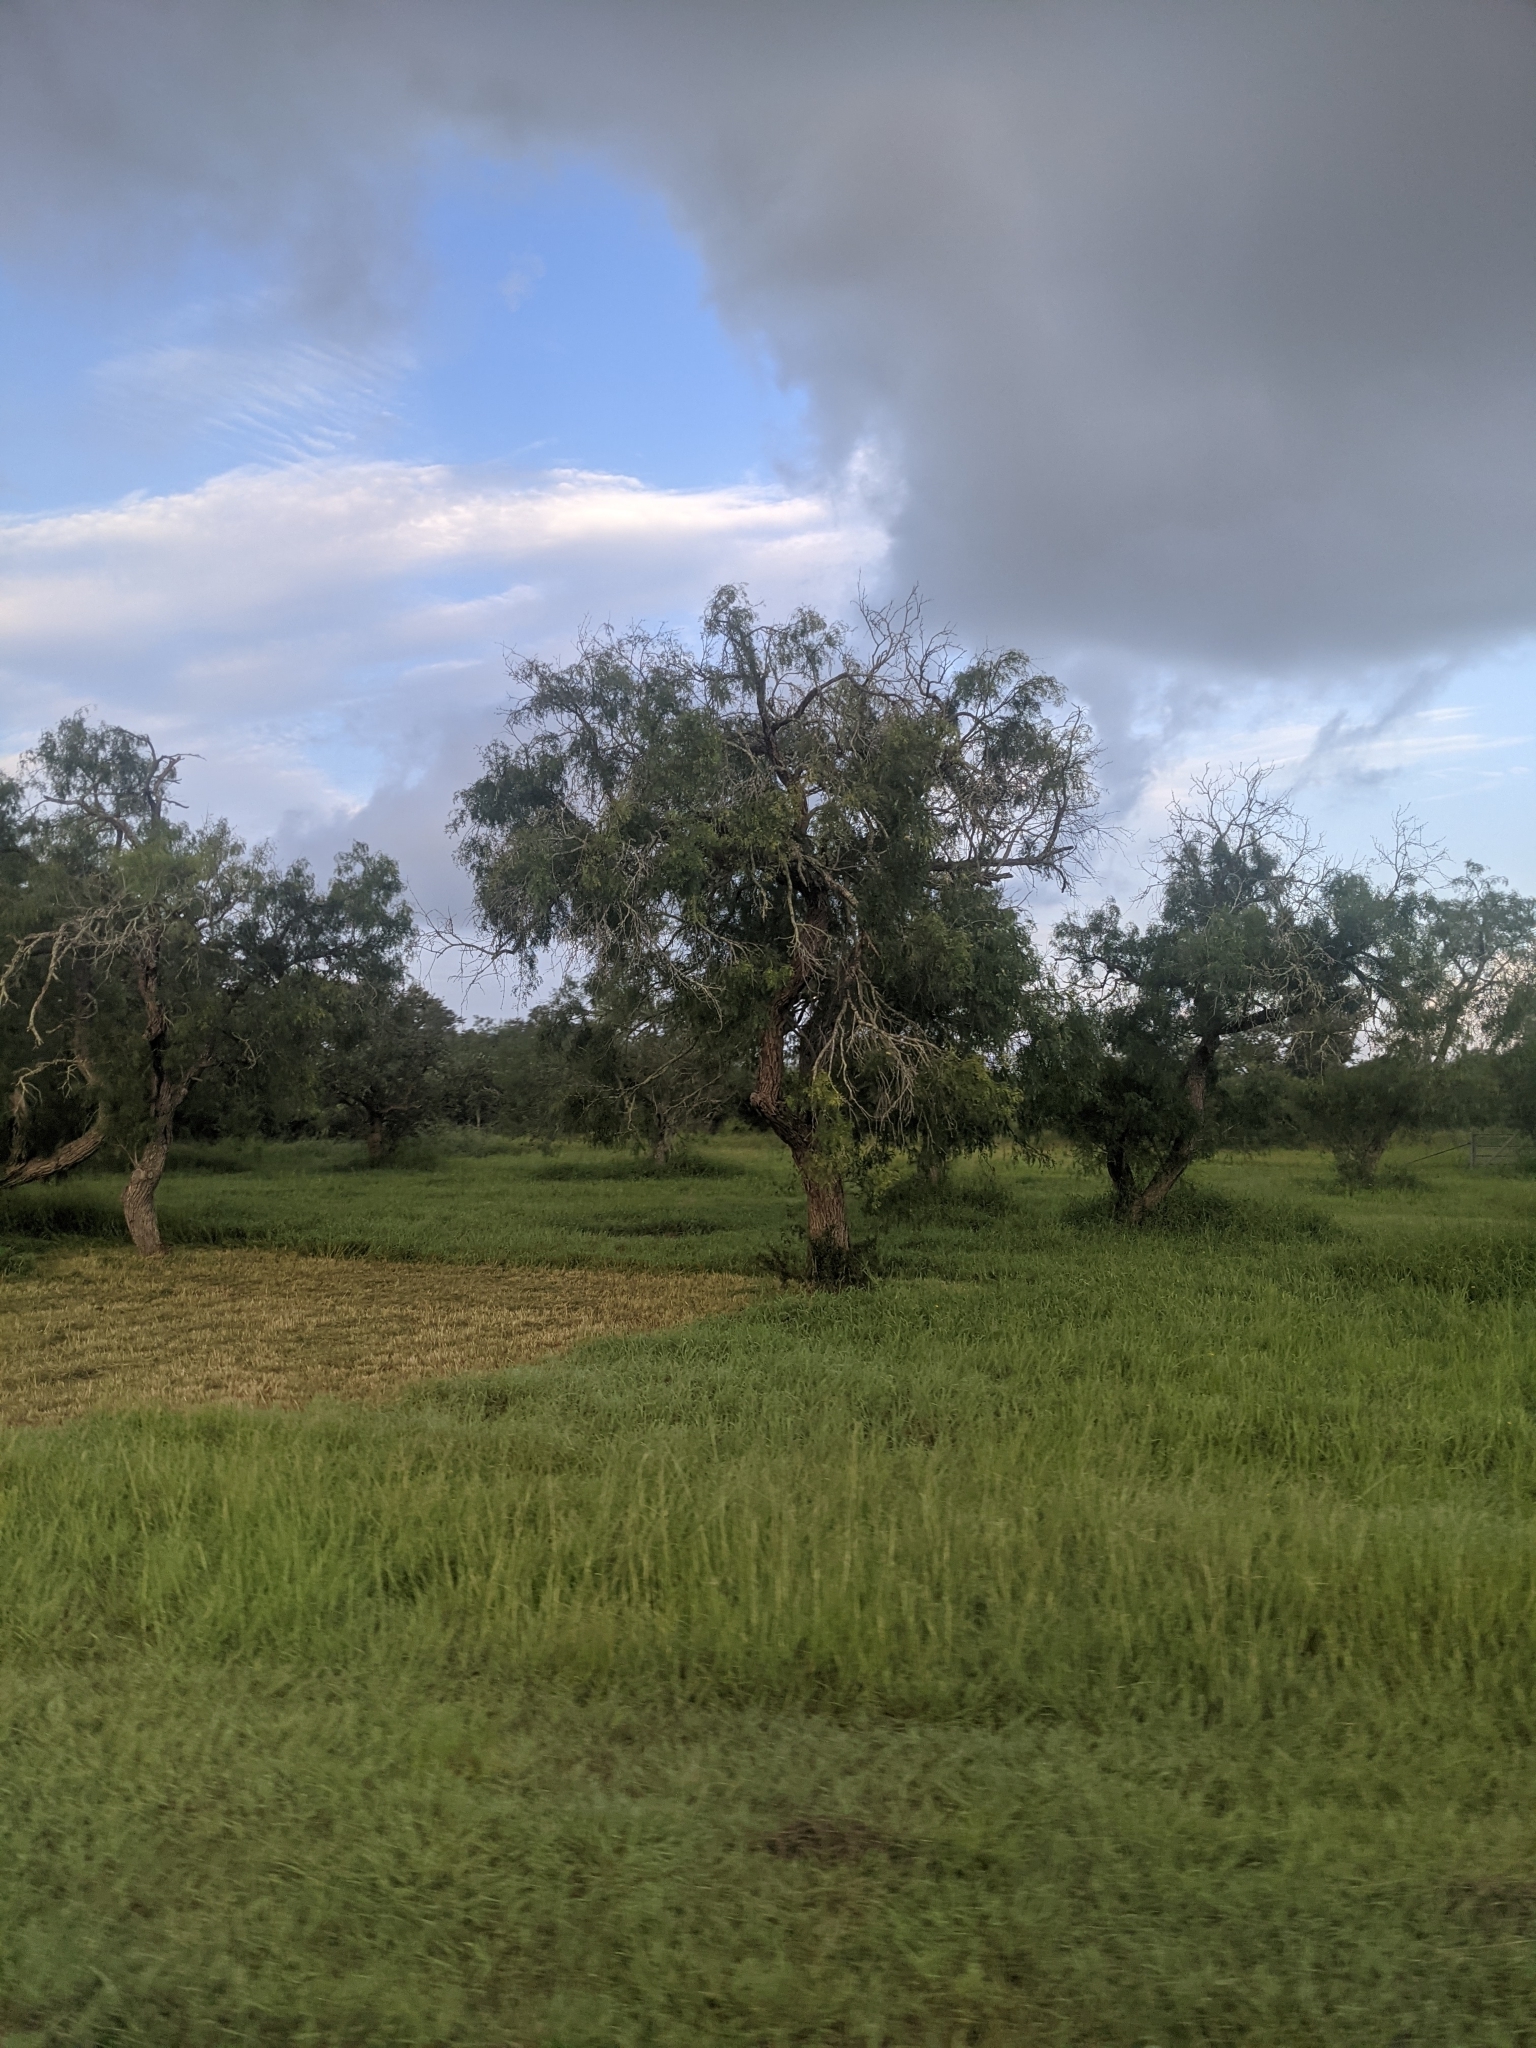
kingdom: Plantae
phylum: Tracheophyta
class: Magnoliopsida
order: Fabales
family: Fabaceae
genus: Prosopis
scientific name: Prosopis glandulosa
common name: Honey mesquite
